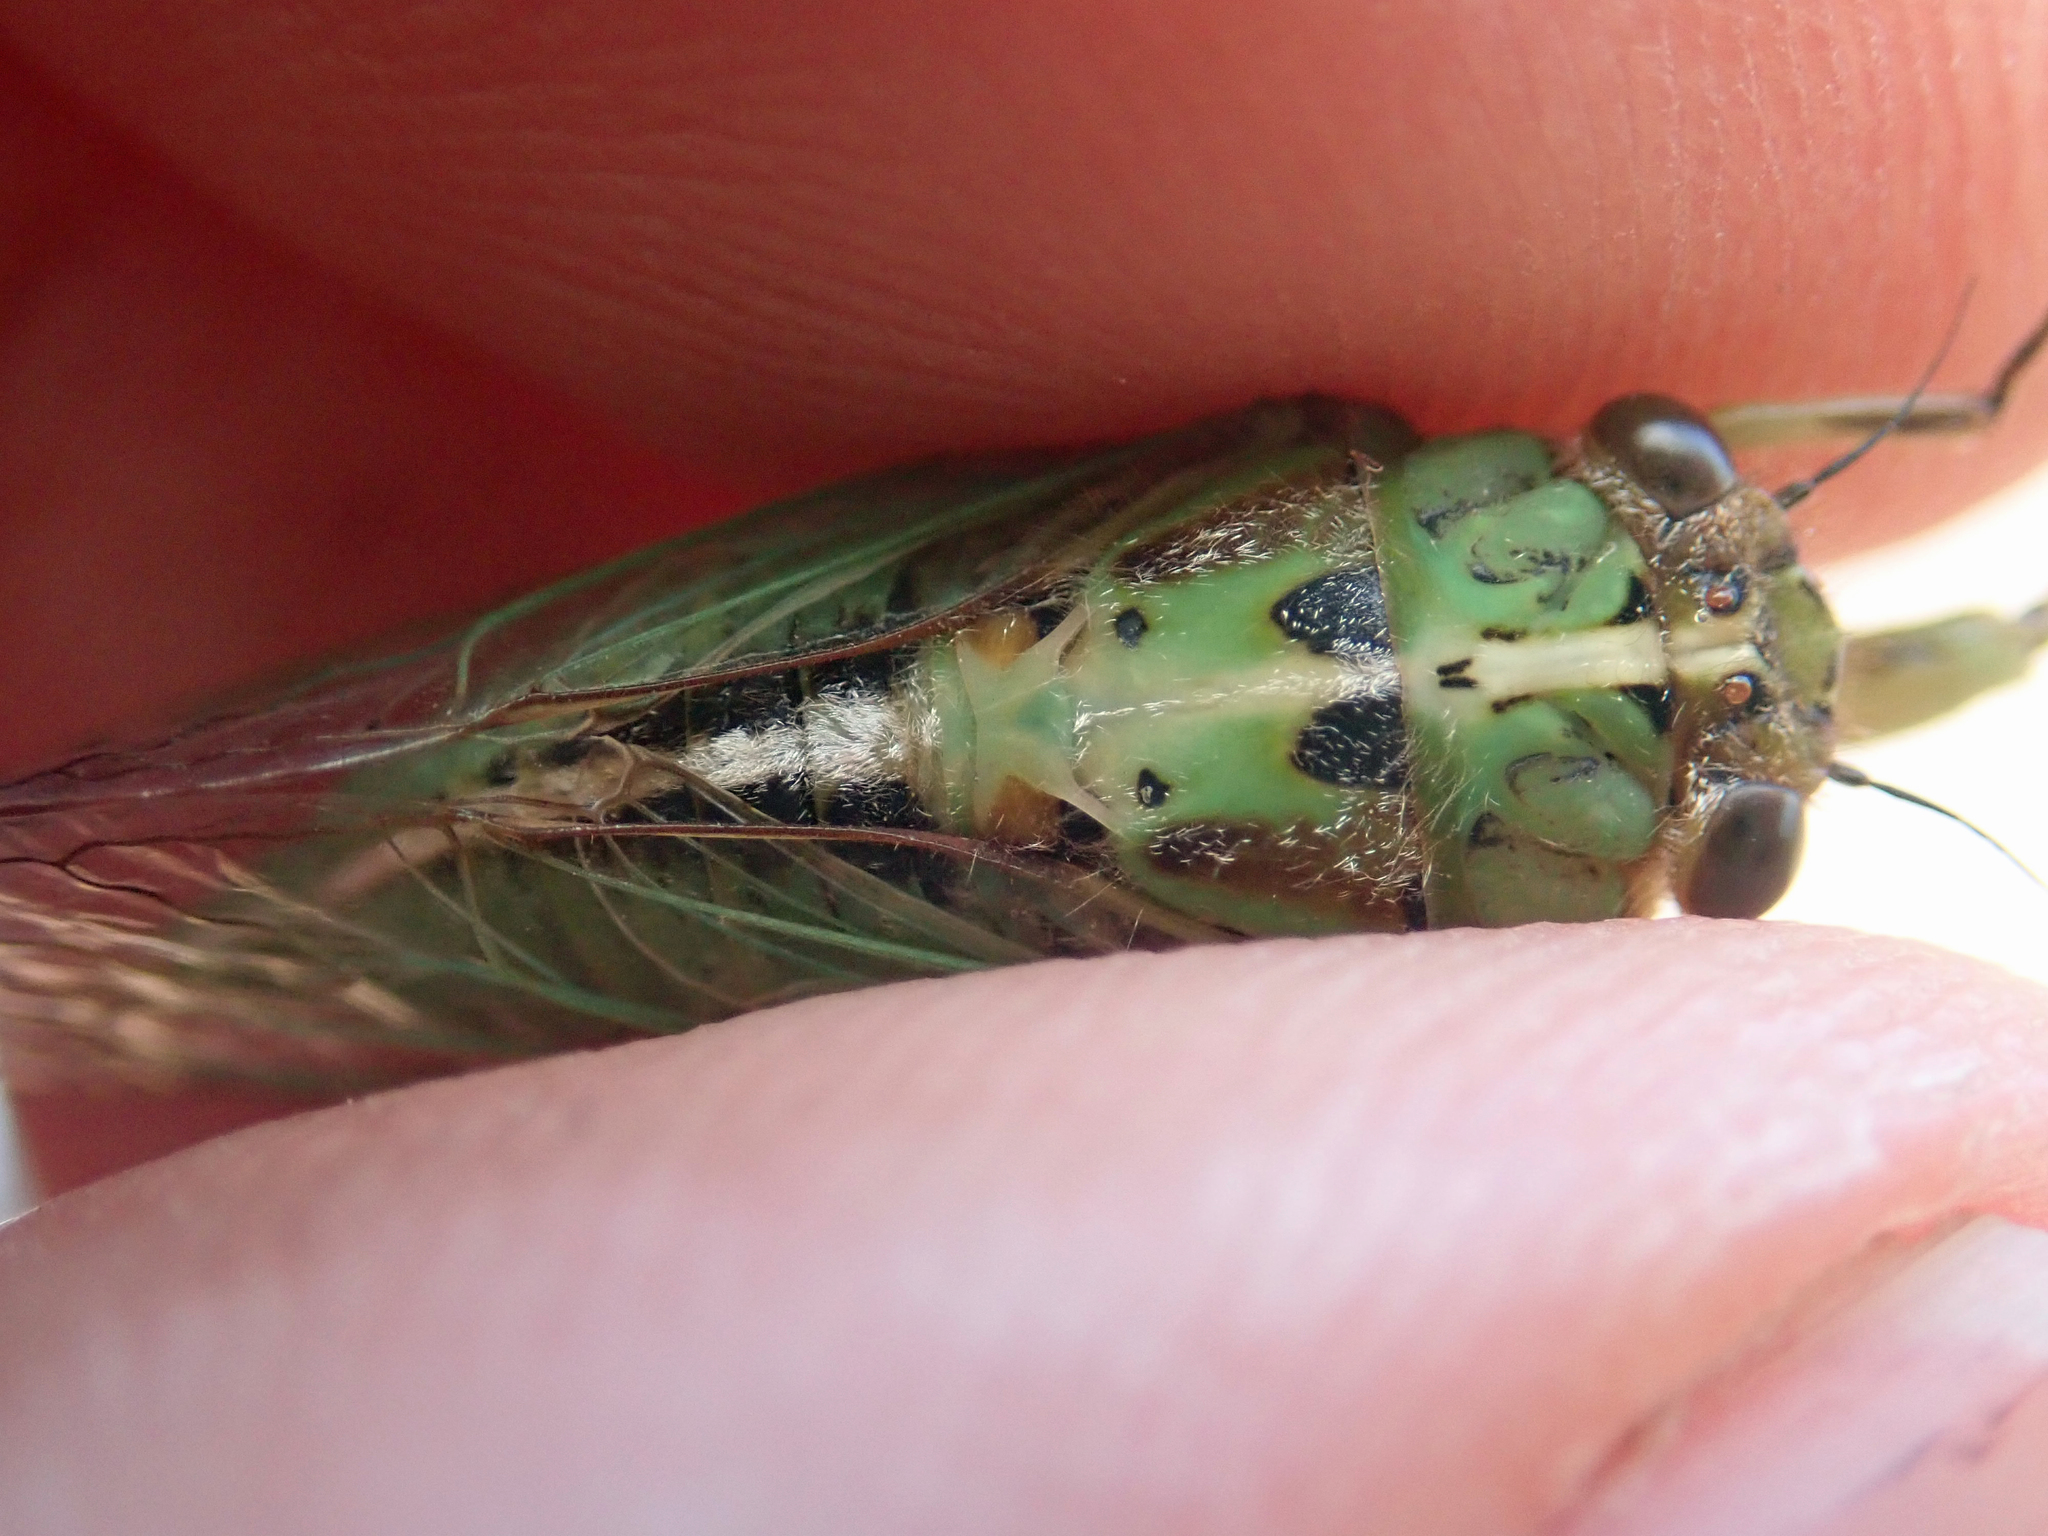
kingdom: Animalia
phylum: Arthropoda
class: Insecta
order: Hemiptera
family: Cicadidae
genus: Kikihia
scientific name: Kikihia longula
